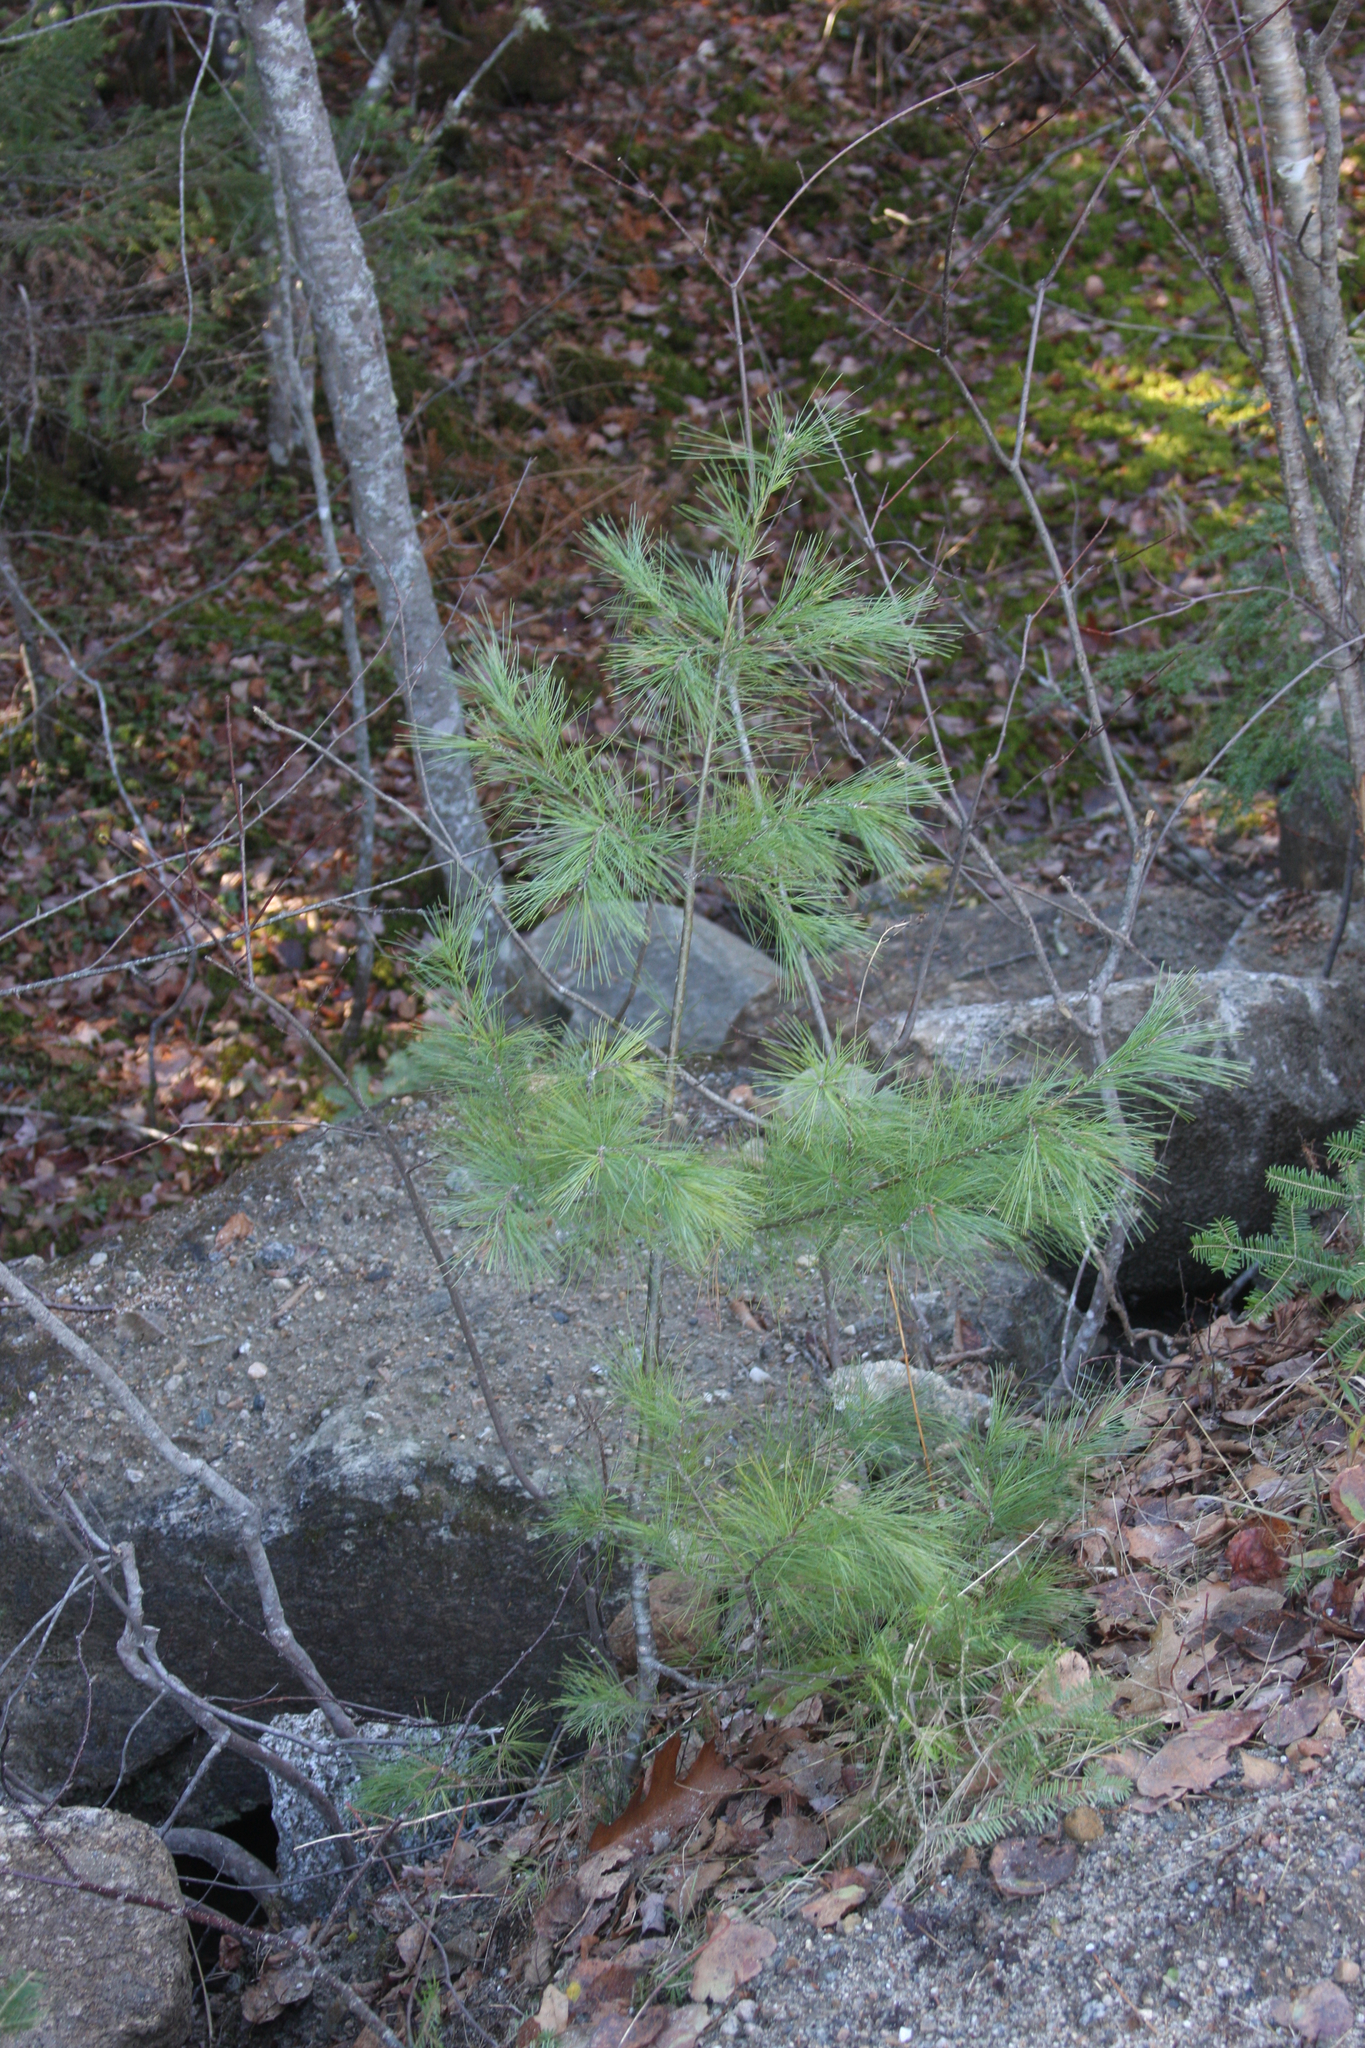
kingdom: Plantae
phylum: Tracheophyta
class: Pinopsida
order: Pinales
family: Pinaceae
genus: Pinus
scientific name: Pinus strobus
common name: Weymouth pine
